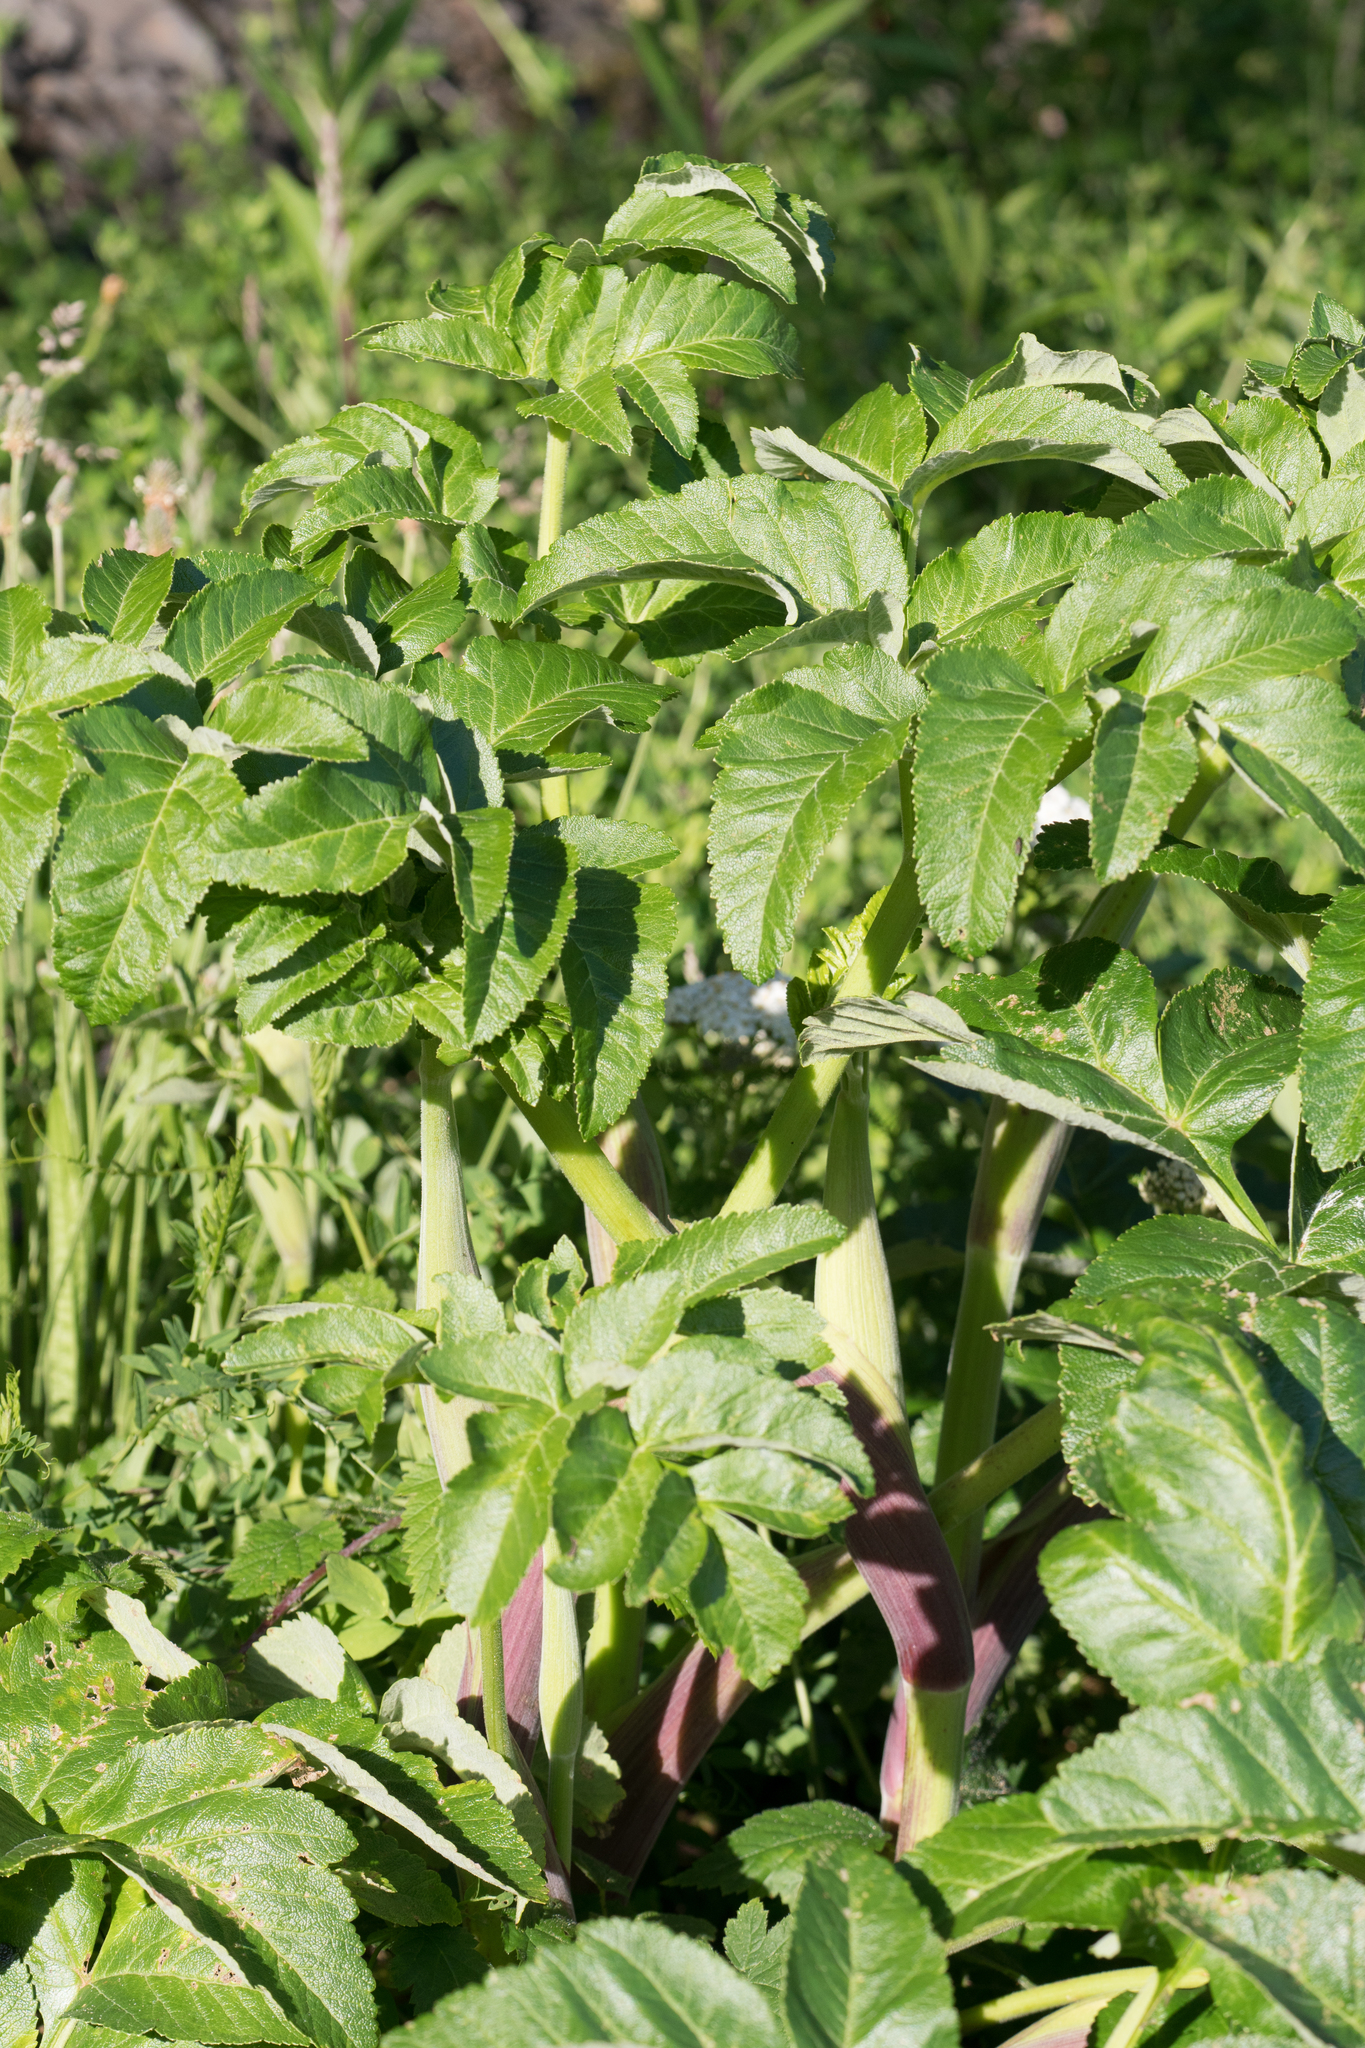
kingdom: Plantae
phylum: Tracheophyta
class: Magnoliopsida
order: Apiales
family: Apiaceae
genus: Angelica
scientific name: Angelica hendersonii
